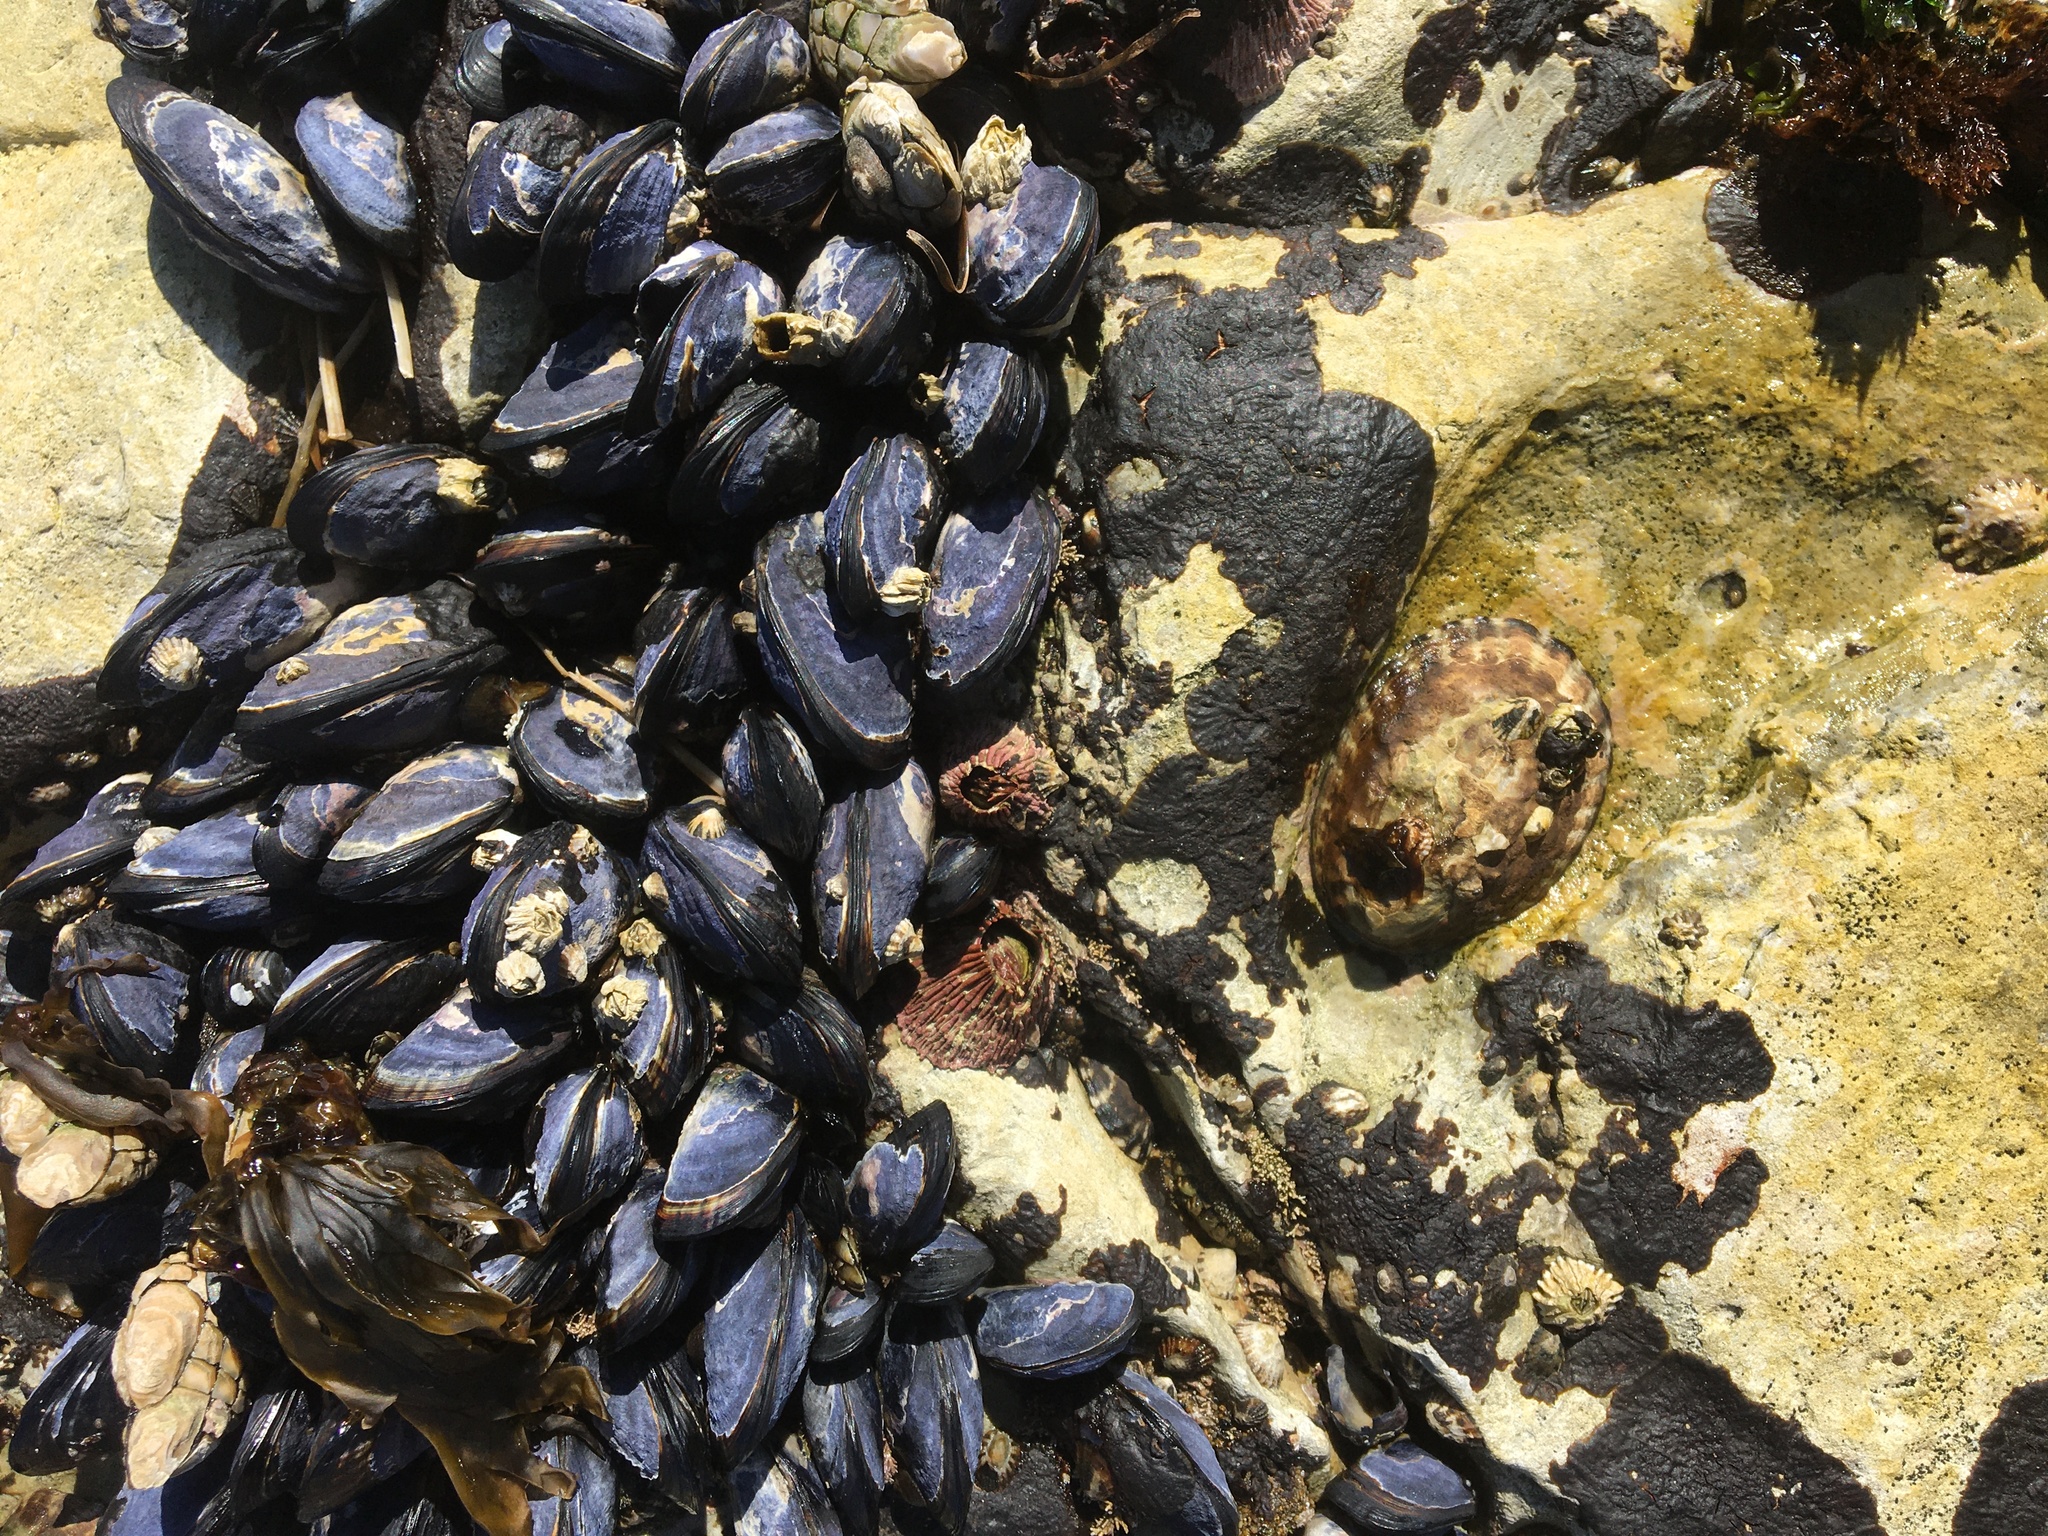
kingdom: Animalia
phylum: Mollusca
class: Bivalvia
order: Mytilida
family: Mytilidae
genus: Mytilus
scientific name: Mytilus californianus
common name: California mussel
